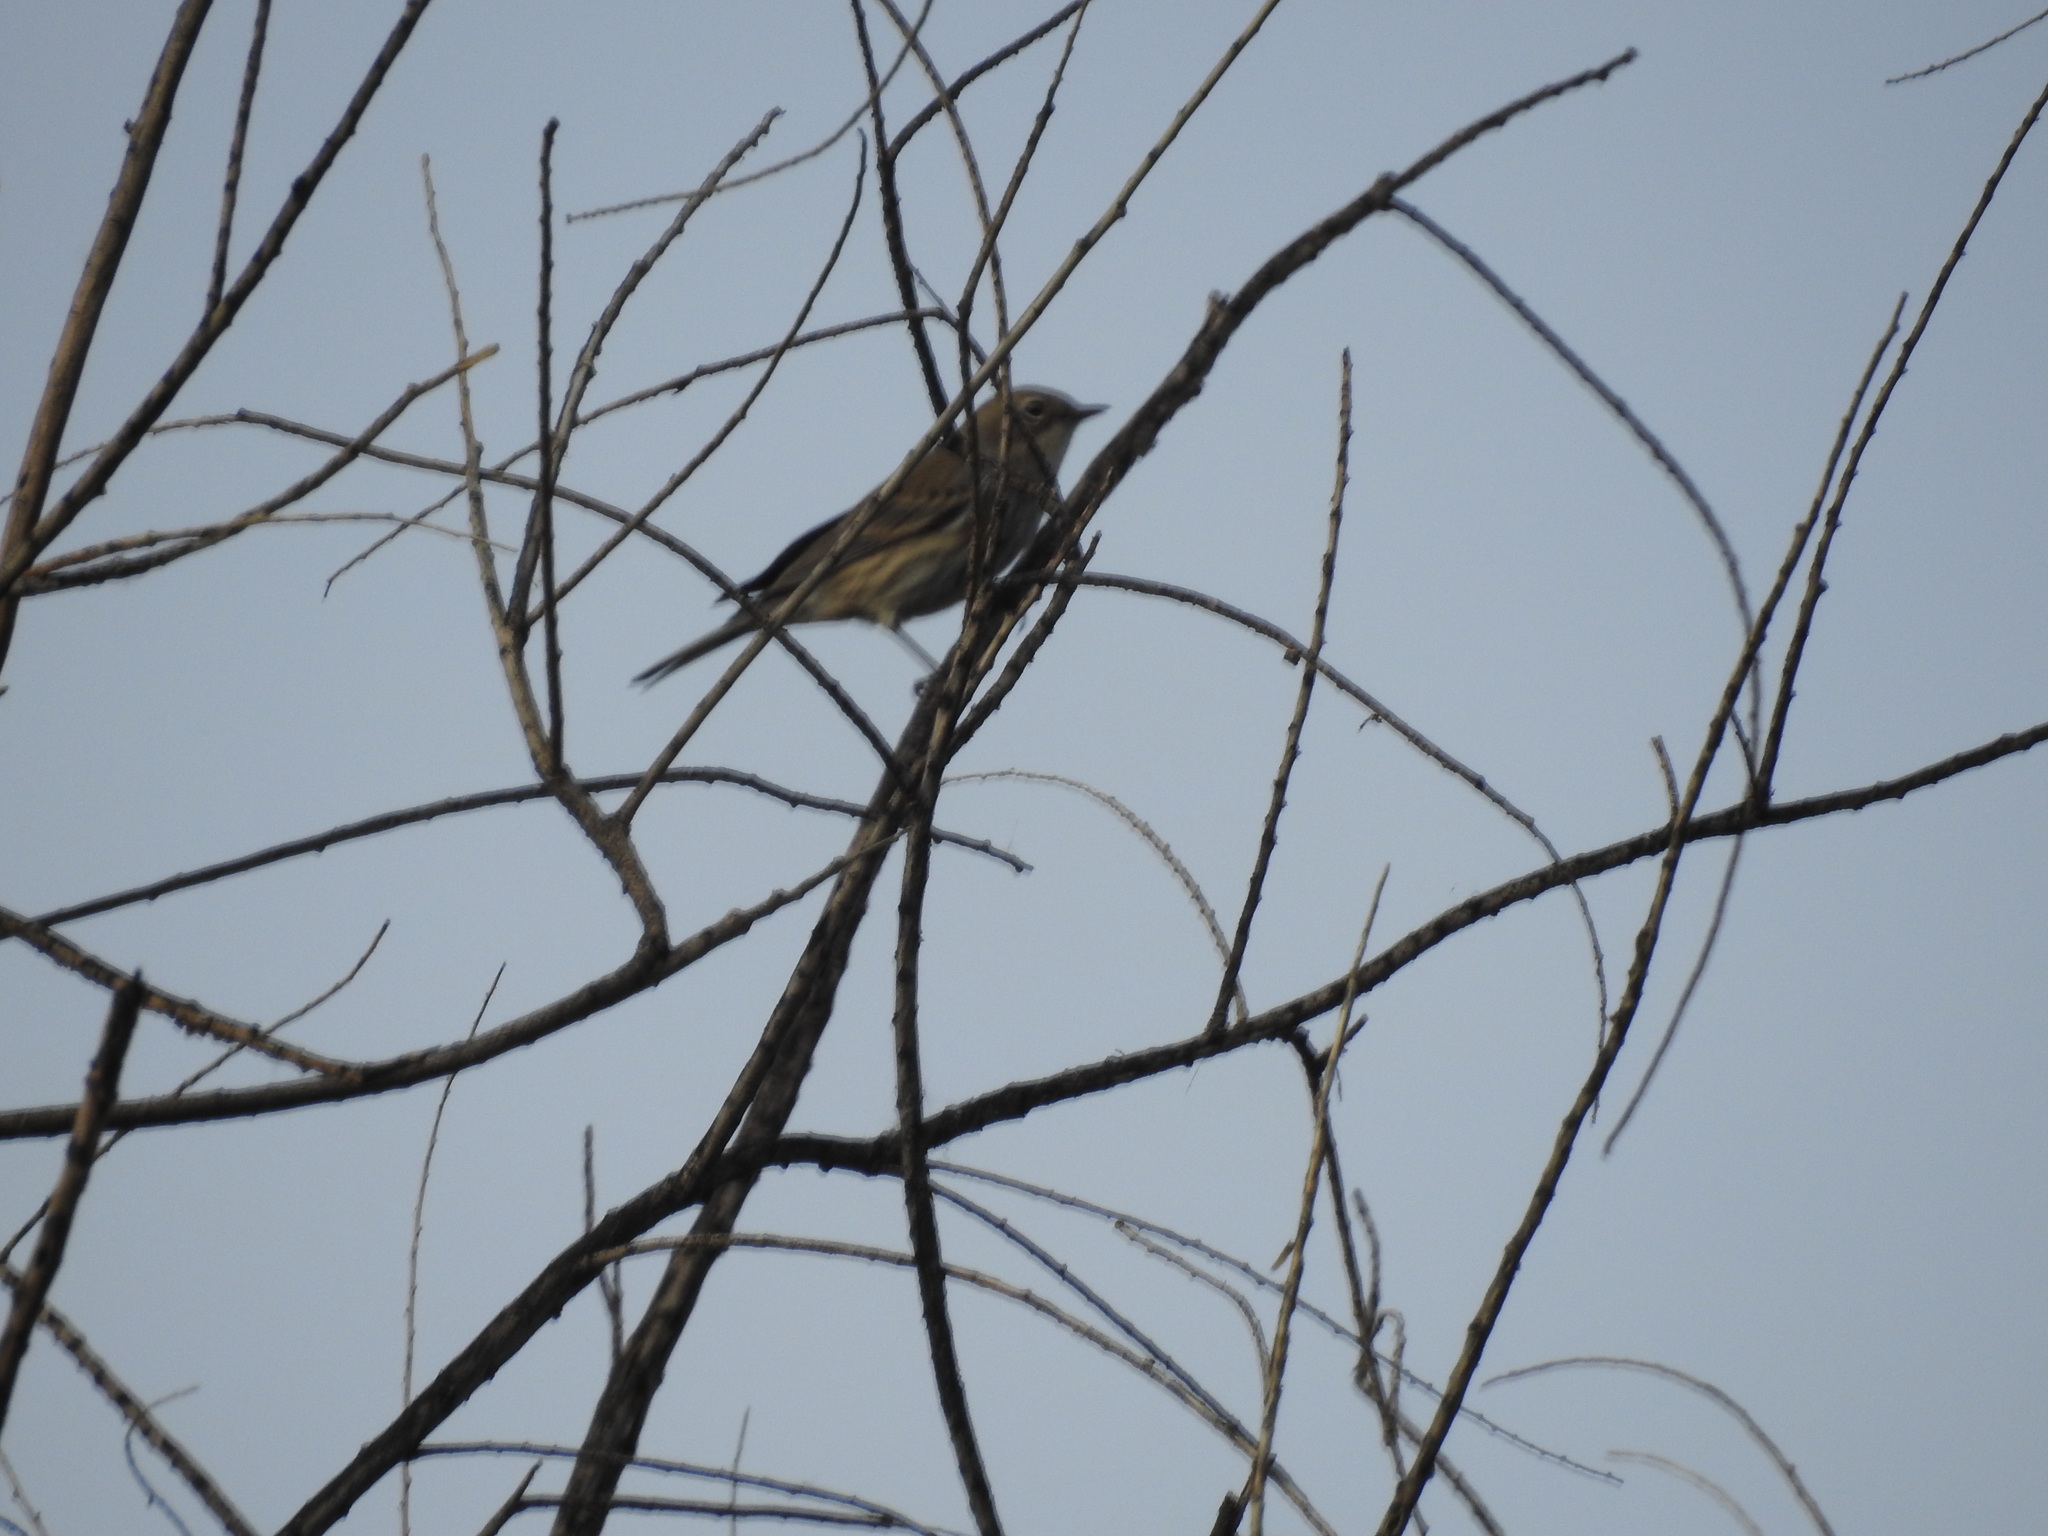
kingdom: Animalia
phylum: Chordata
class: Aves
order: Passeriformes
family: Parulidae
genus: Setophaga
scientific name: Setophaga coronata
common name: Myrtle warbler
